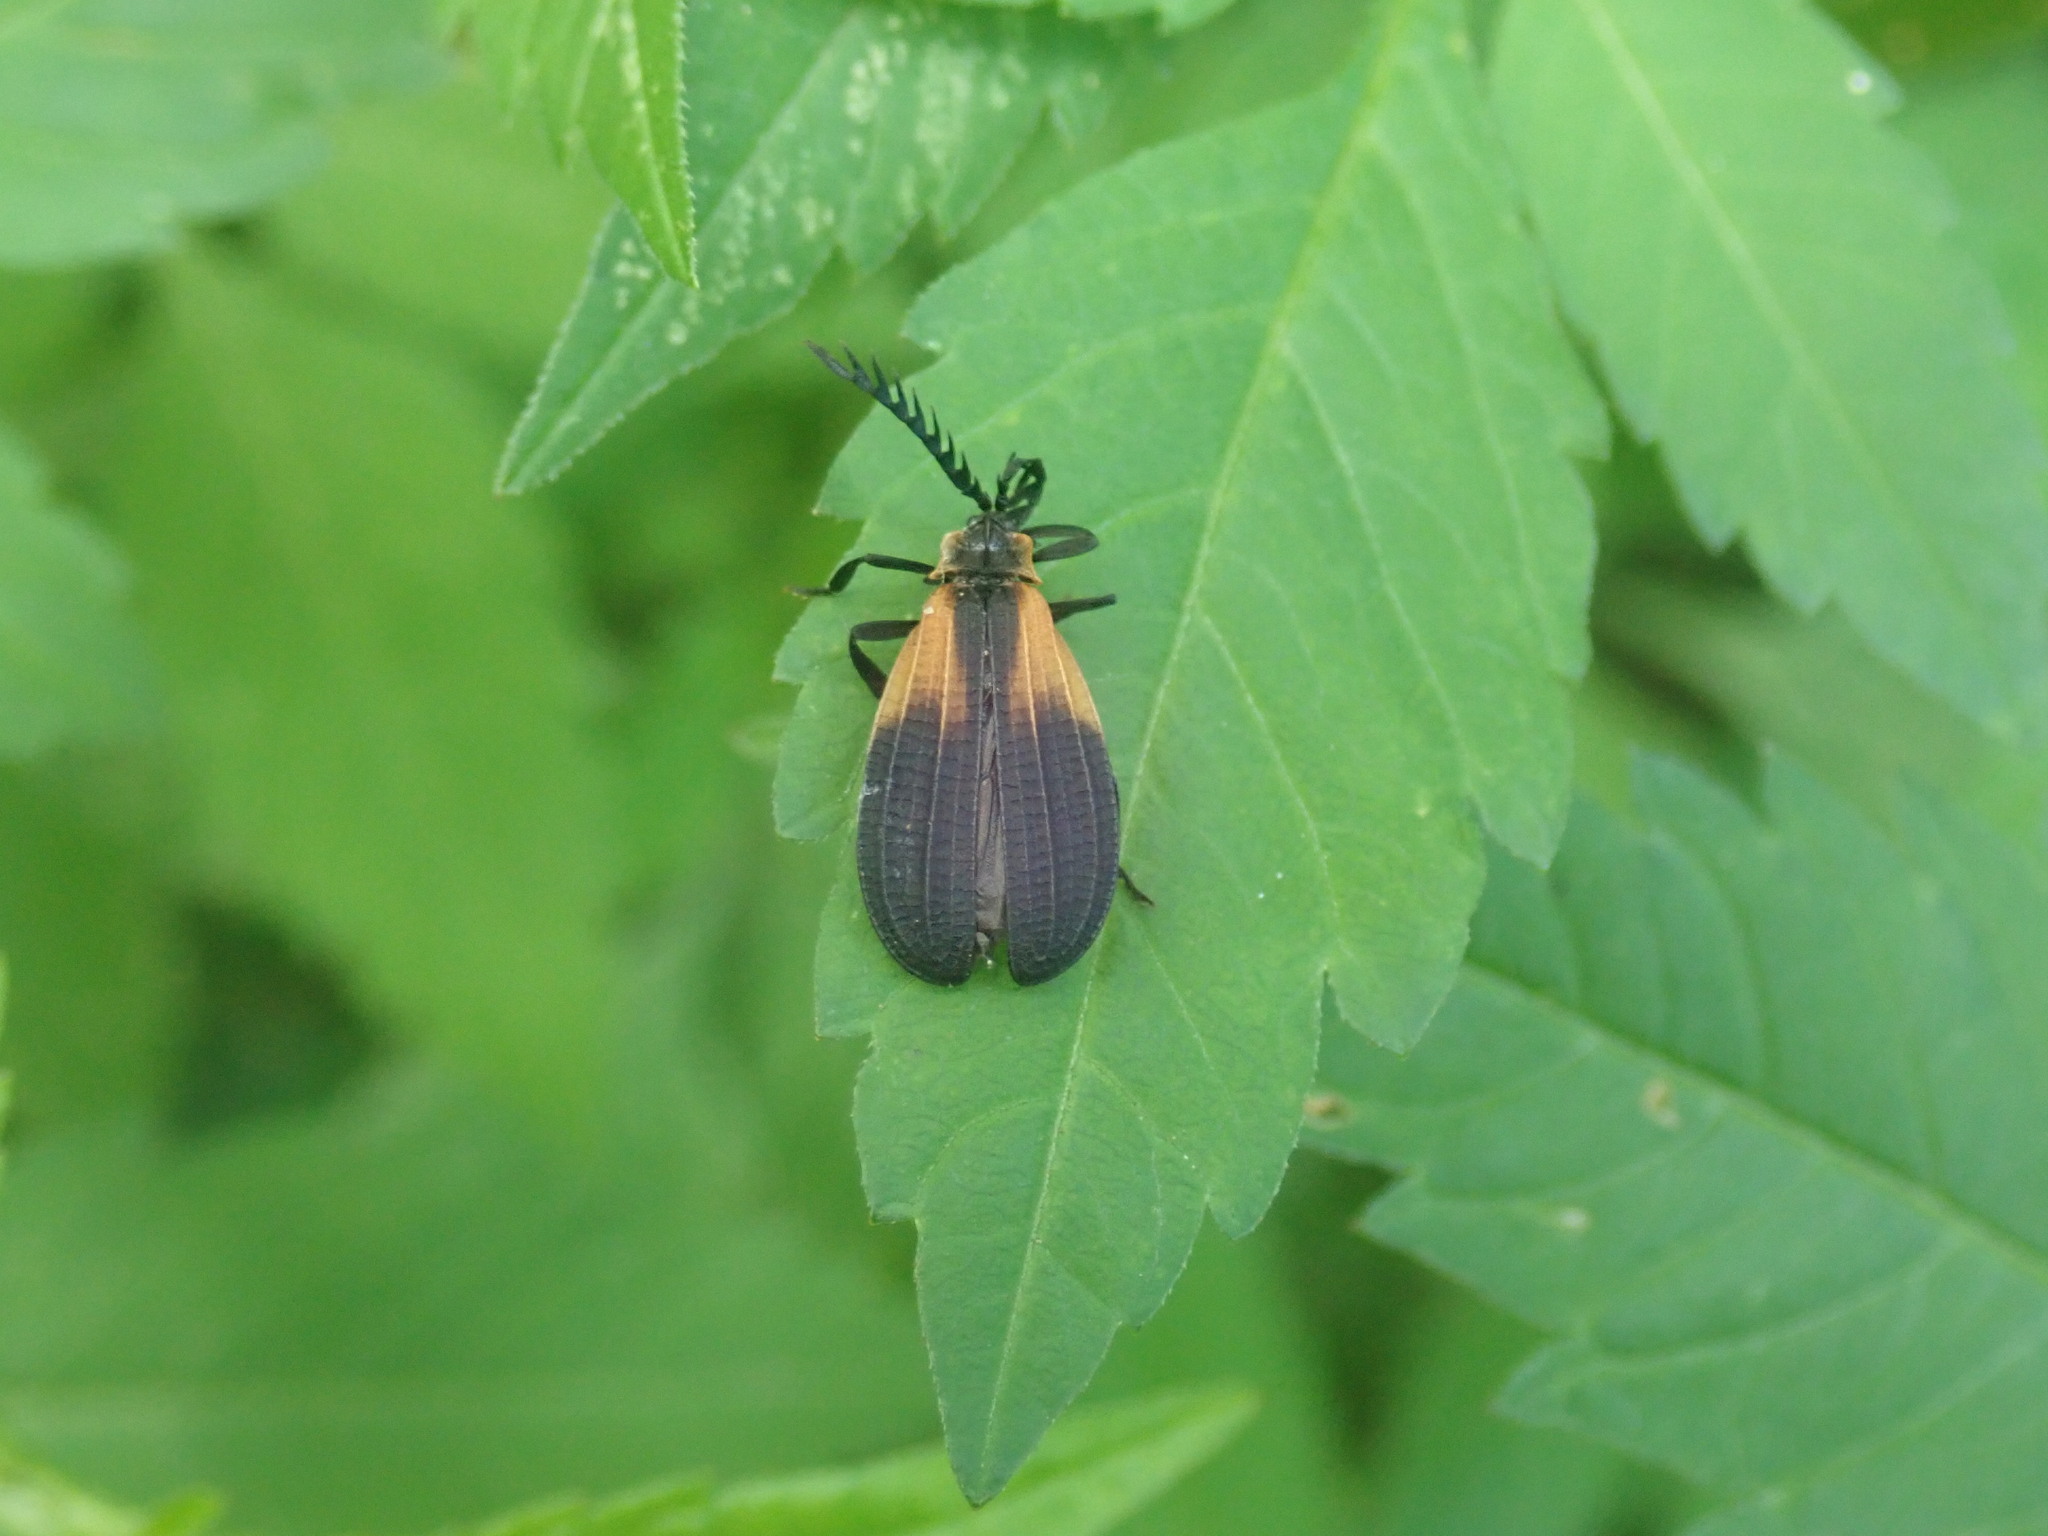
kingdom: Animalia
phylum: Arthropoda
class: Insecta
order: Coleoptera
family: Lycidae
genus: Caenia
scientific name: Caenia dimidiata
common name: Terminal net-winged beetle
